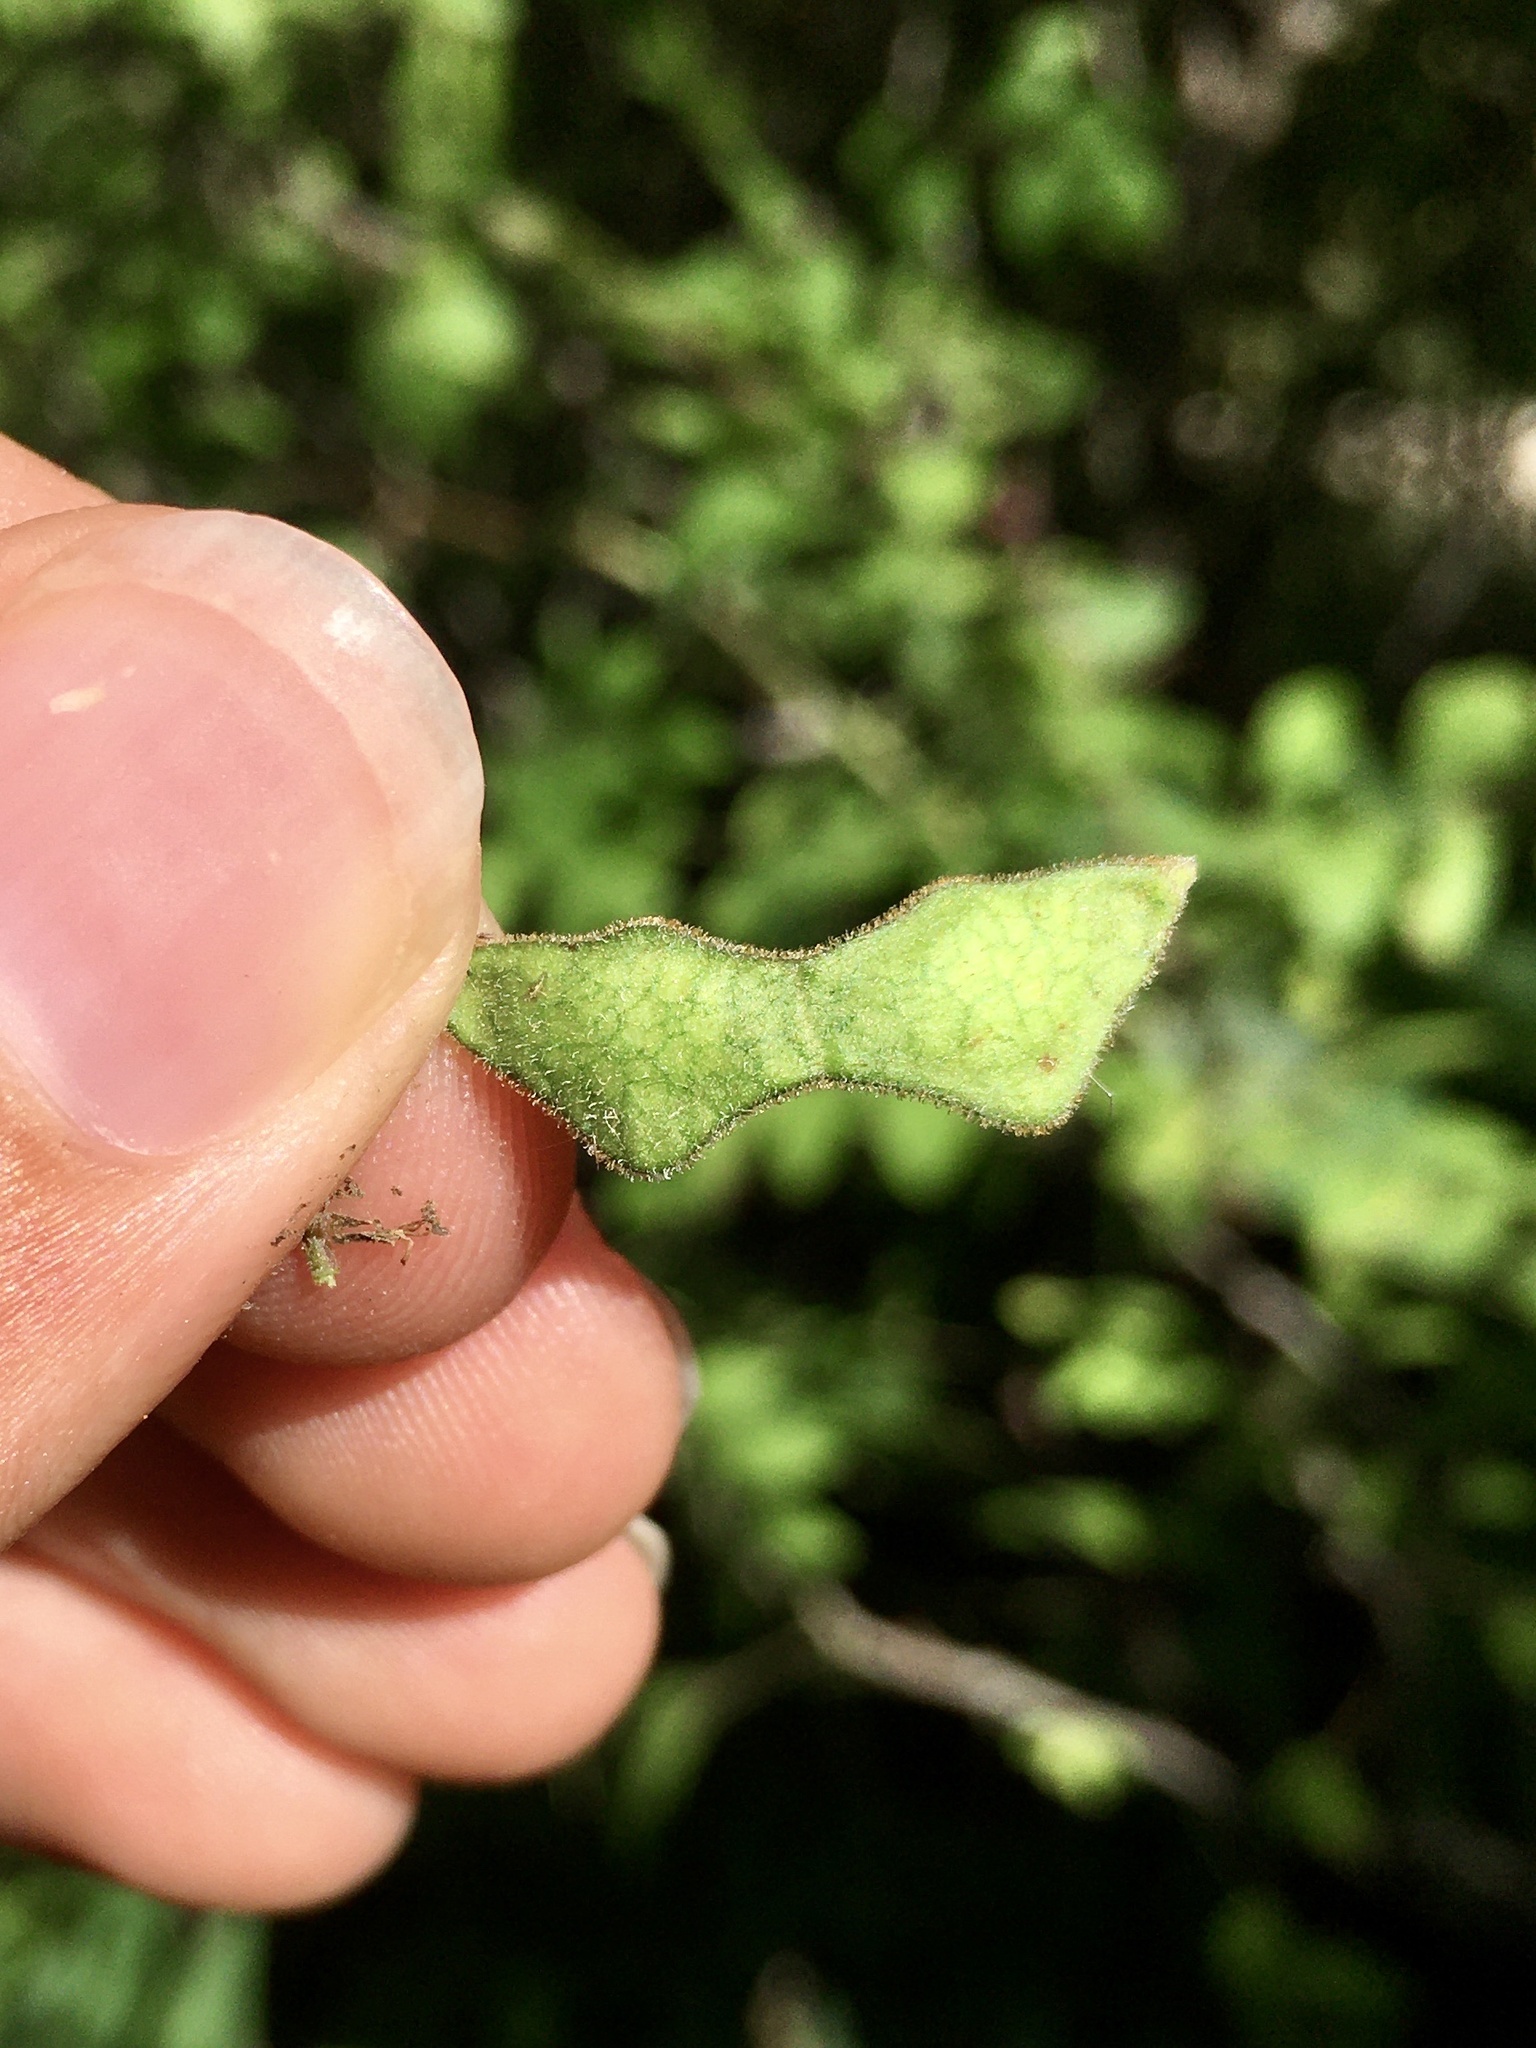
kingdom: Plantae
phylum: Tracheophyta
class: Magnoliopsida
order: Fabales
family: Fabaceae
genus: Desmodium
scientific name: Desmodium cuspidatum
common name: Big tick trefoil
